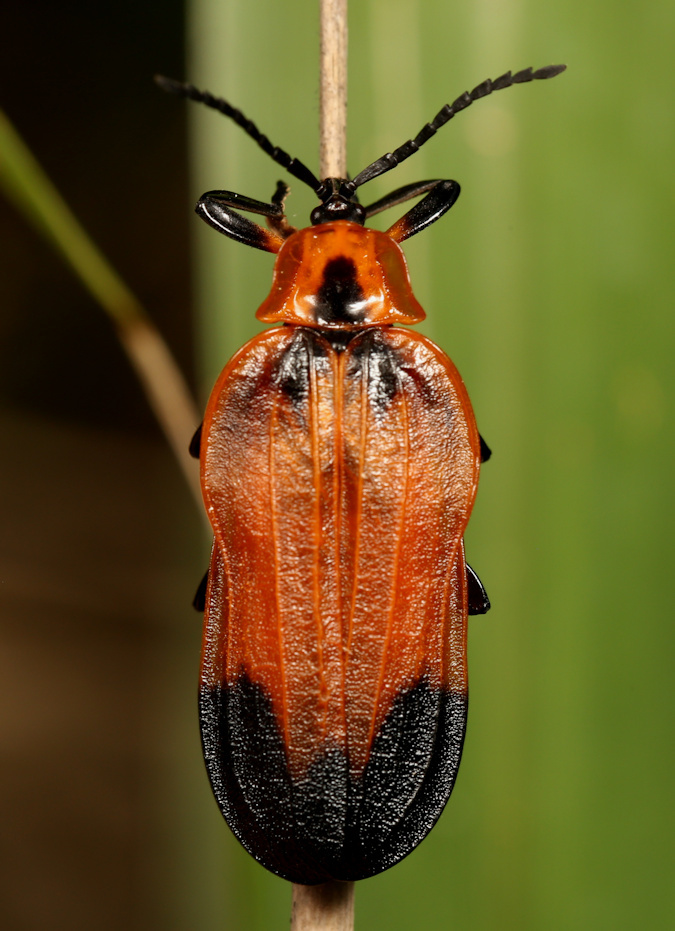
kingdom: Animalia
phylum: Arthropoda
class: Insecta
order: Coleoptera
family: Lycidae
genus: Lycus
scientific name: Lycus
